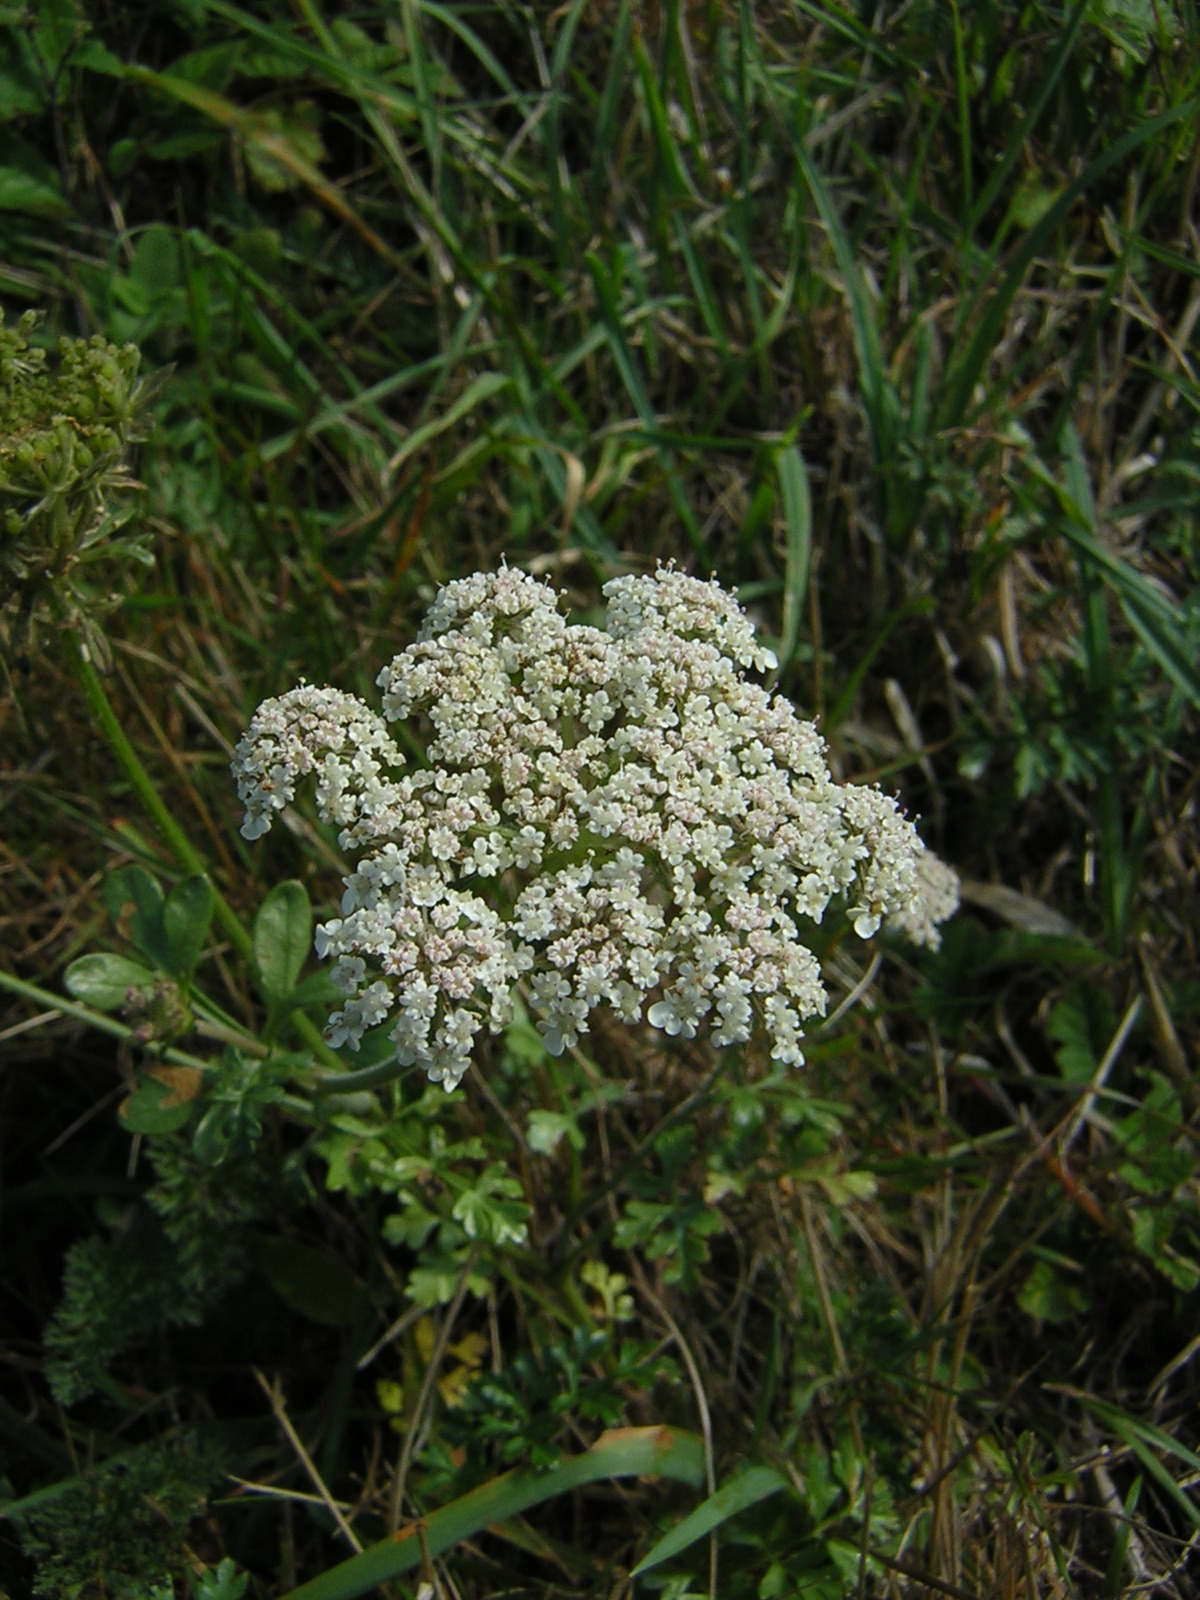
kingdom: Plantae
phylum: Tracheophyta
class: Magnoliopsida
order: Apiales
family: Apiaceae
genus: Daucus
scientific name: Daucus carota
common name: Wild carrot
